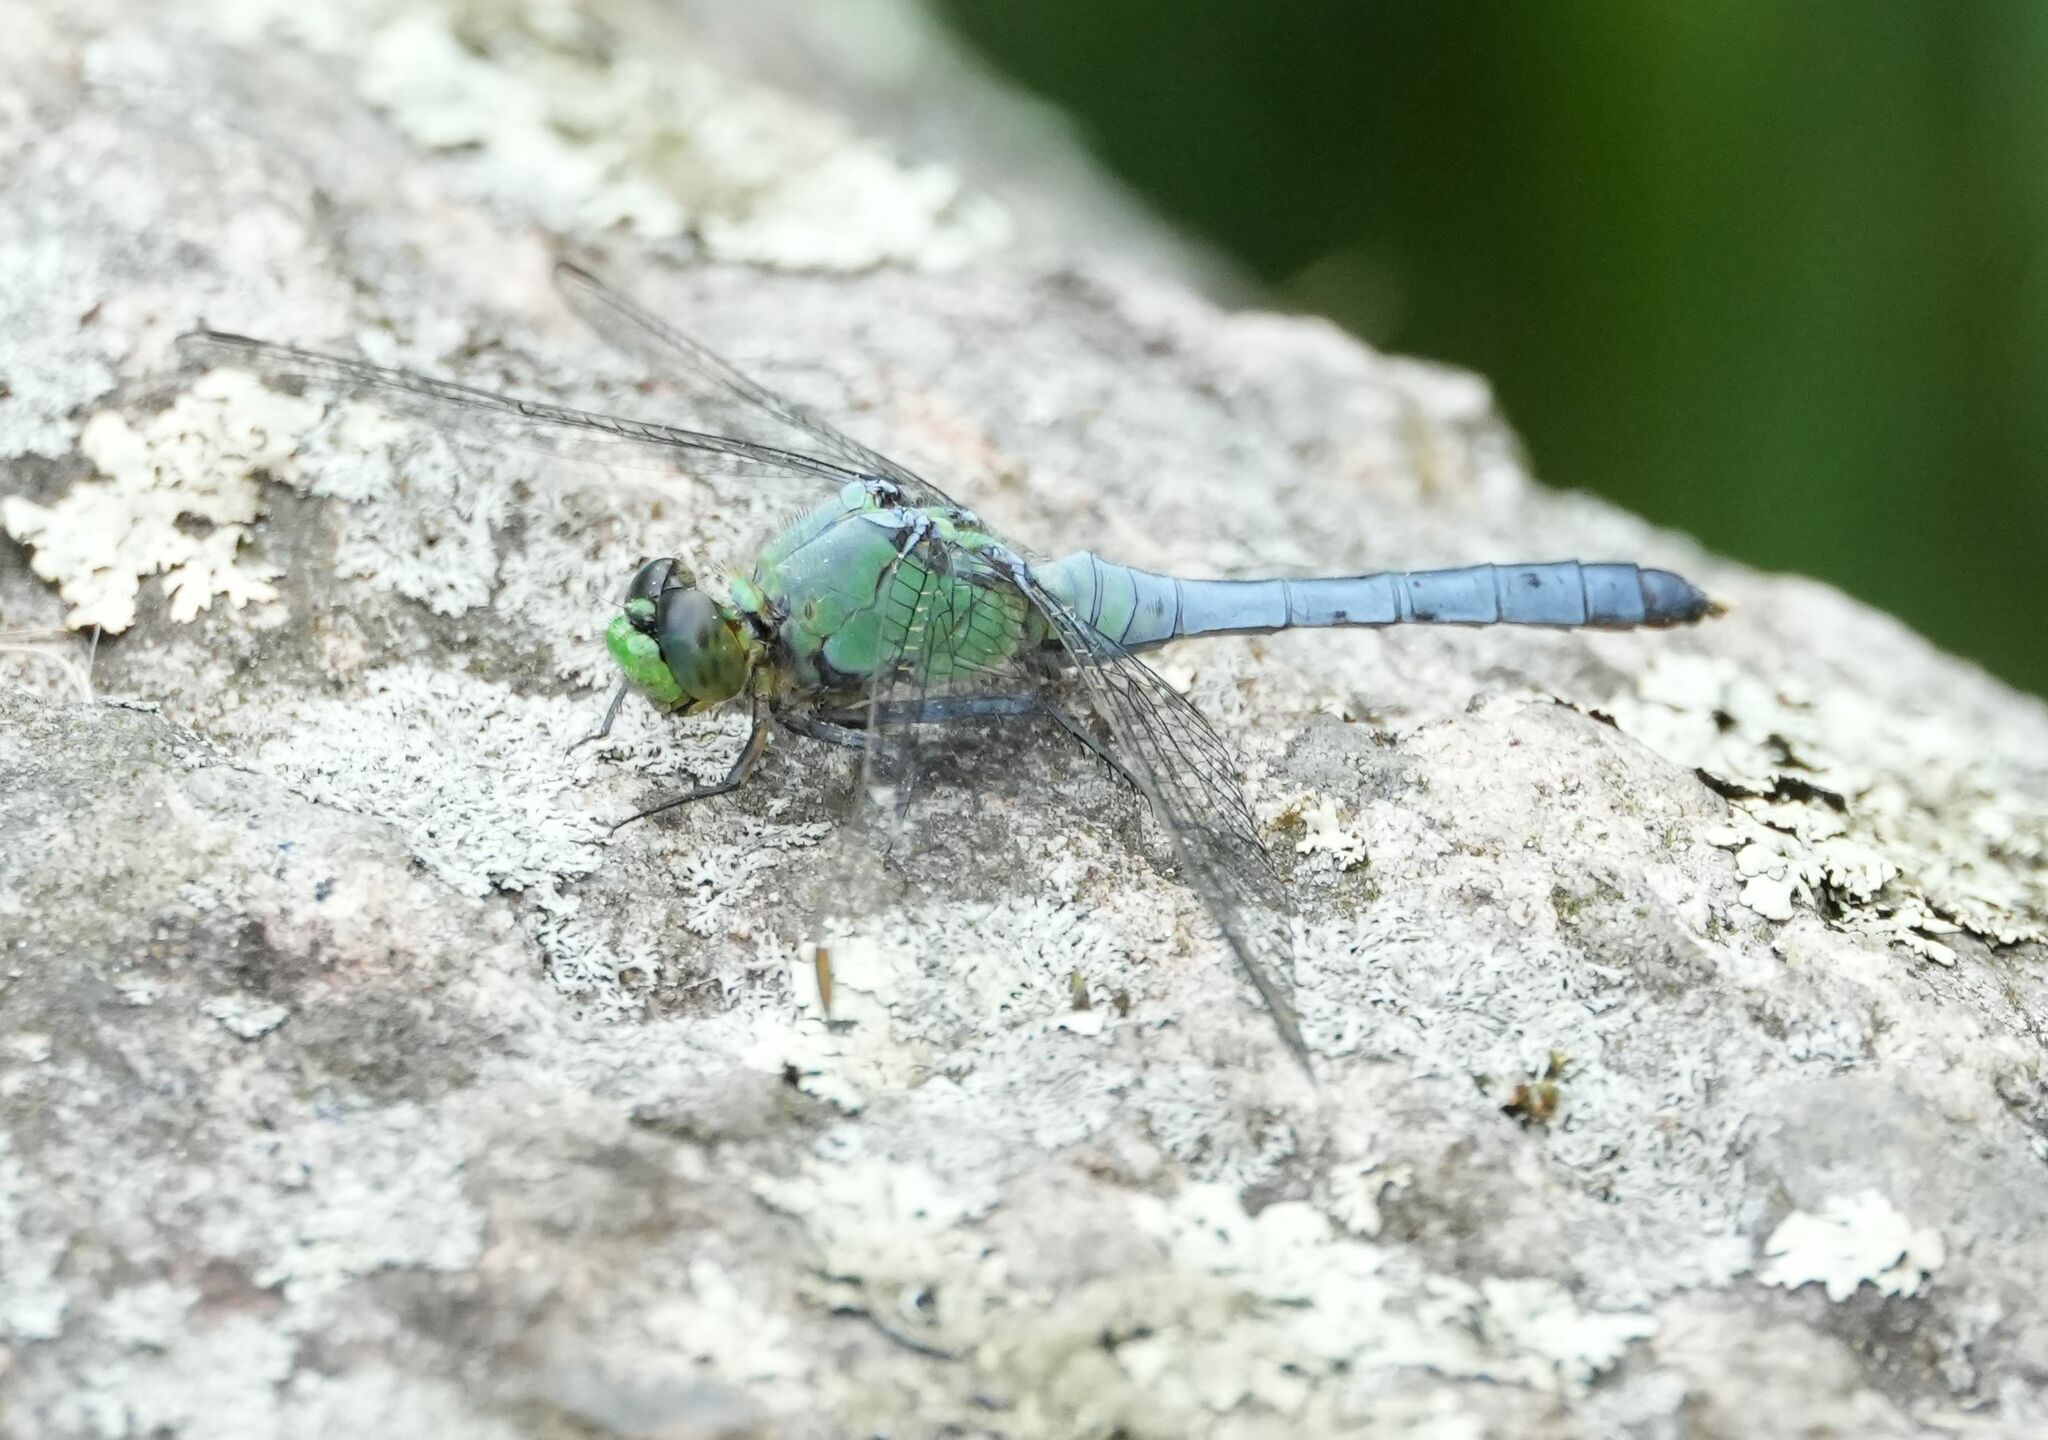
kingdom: Animalia
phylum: Arthropoda
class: Insecta
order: Odonata
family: Libellulidae
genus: Erythemis
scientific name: Erythemis simplicicollis
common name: Eastern pondhawk
